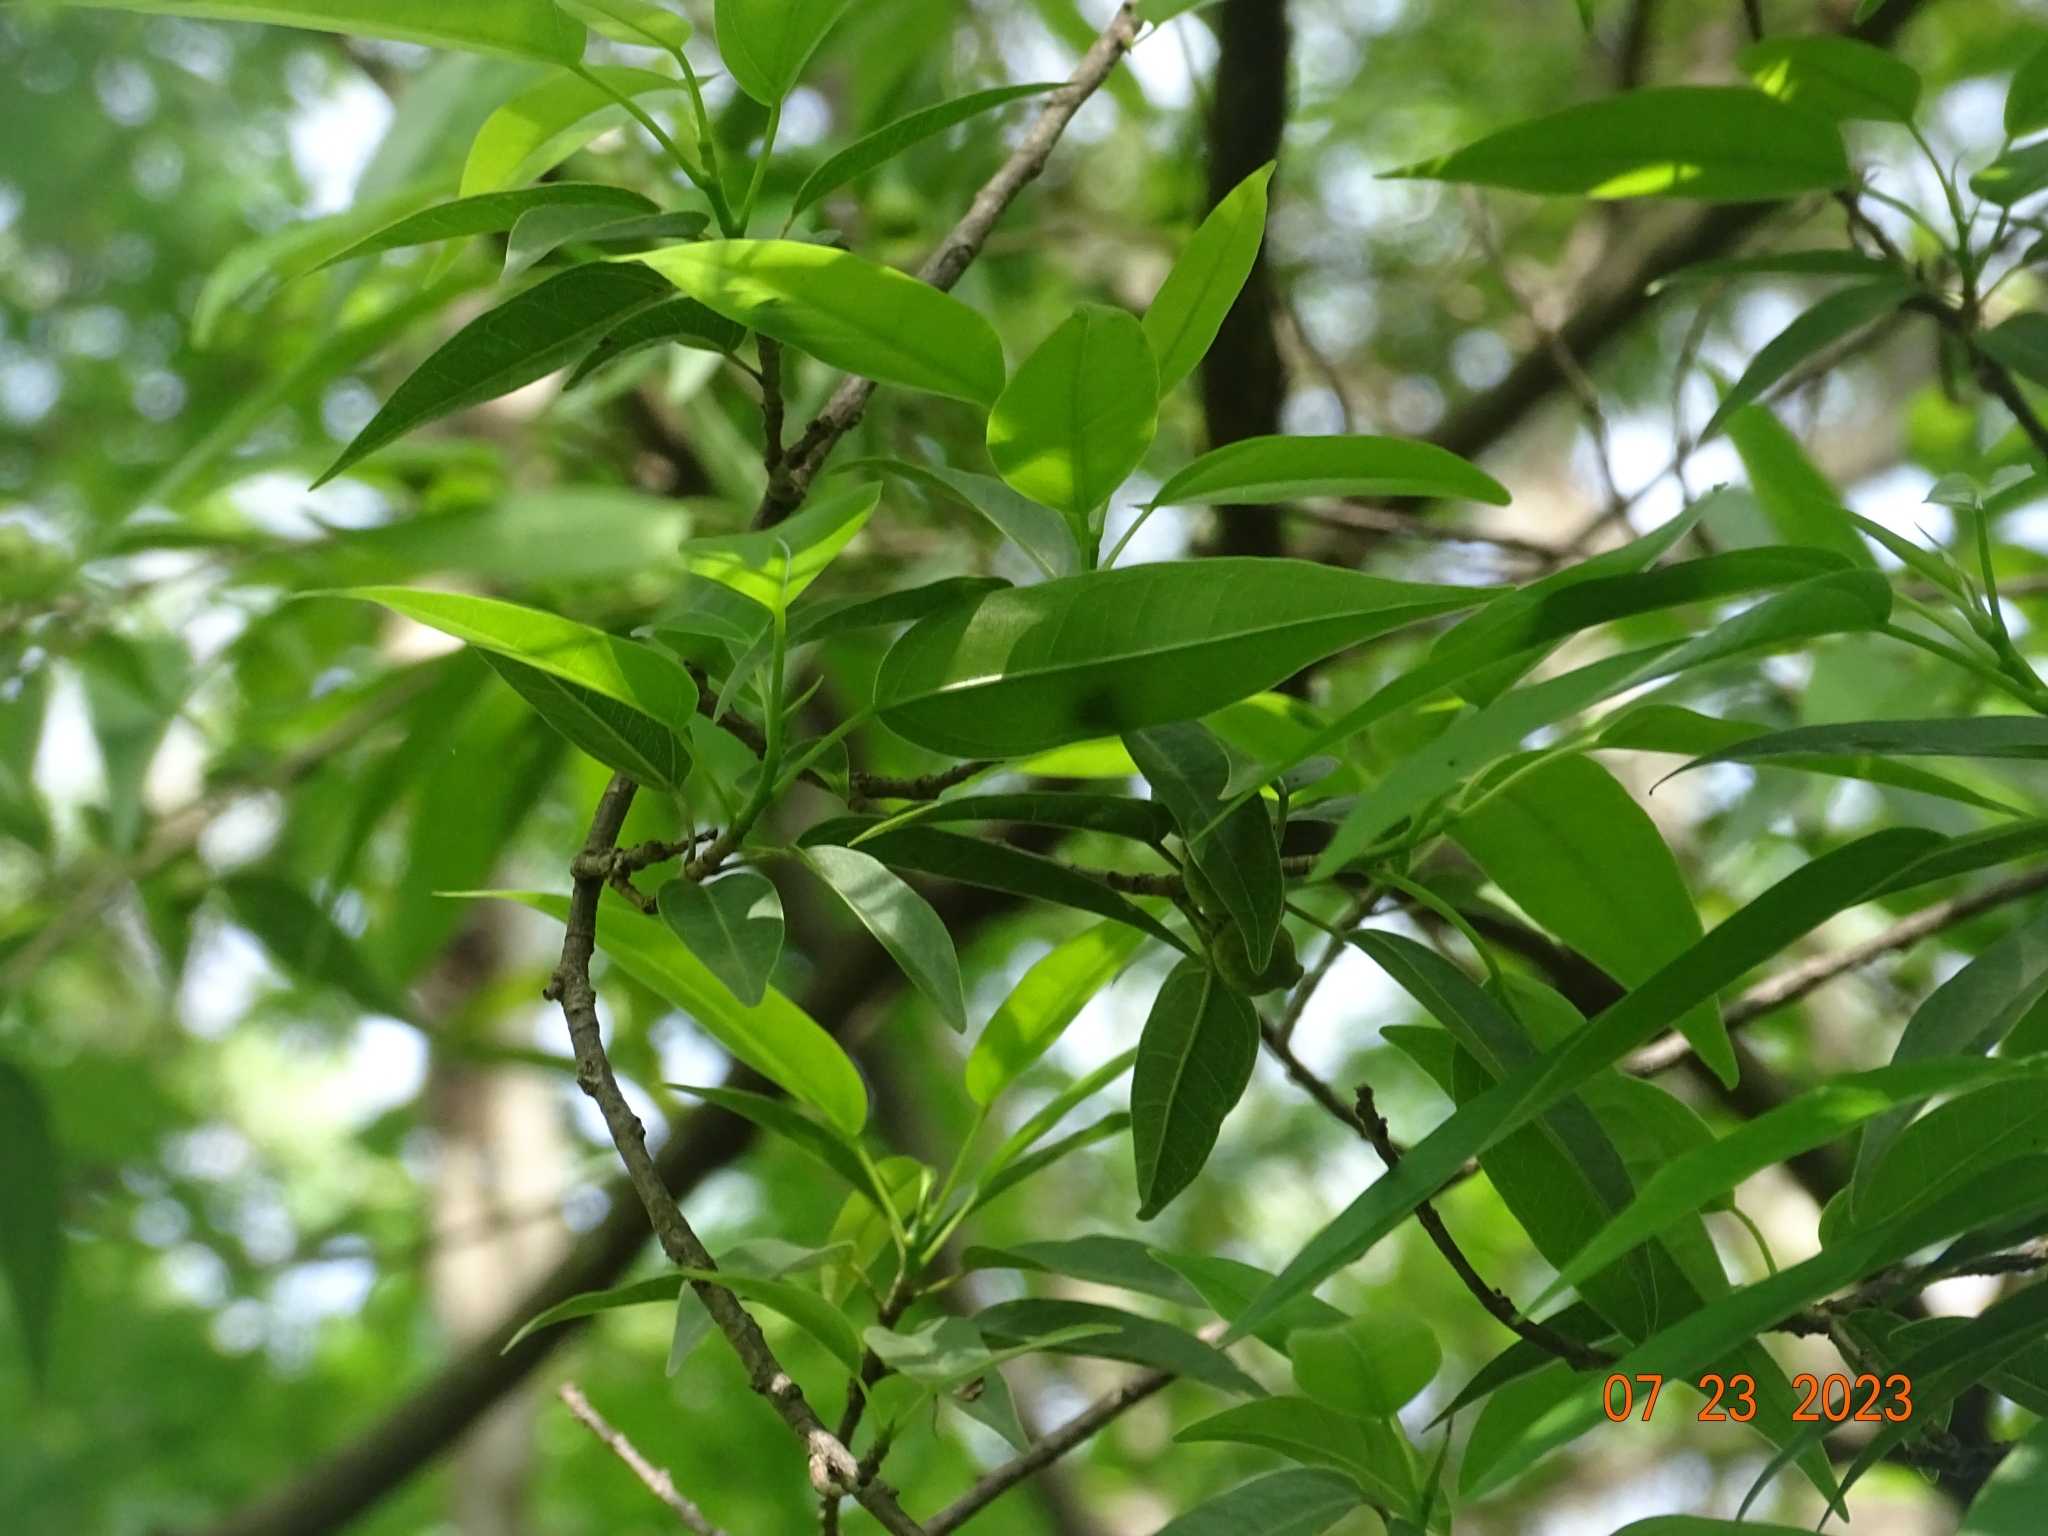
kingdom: Plantae
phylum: Tracheophyta
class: Magnoliopsida
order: Rosales
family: Moraceae
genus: Ficus
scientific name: Ficus pertusa
